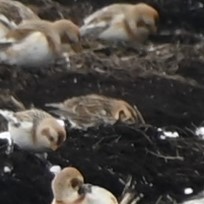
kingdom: Animalia
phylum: Chordata
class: Aves
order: Passeriformes
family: Calcariidae
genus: Calcarius
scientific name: Calcarius lapponicus
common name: Lapland longspur
